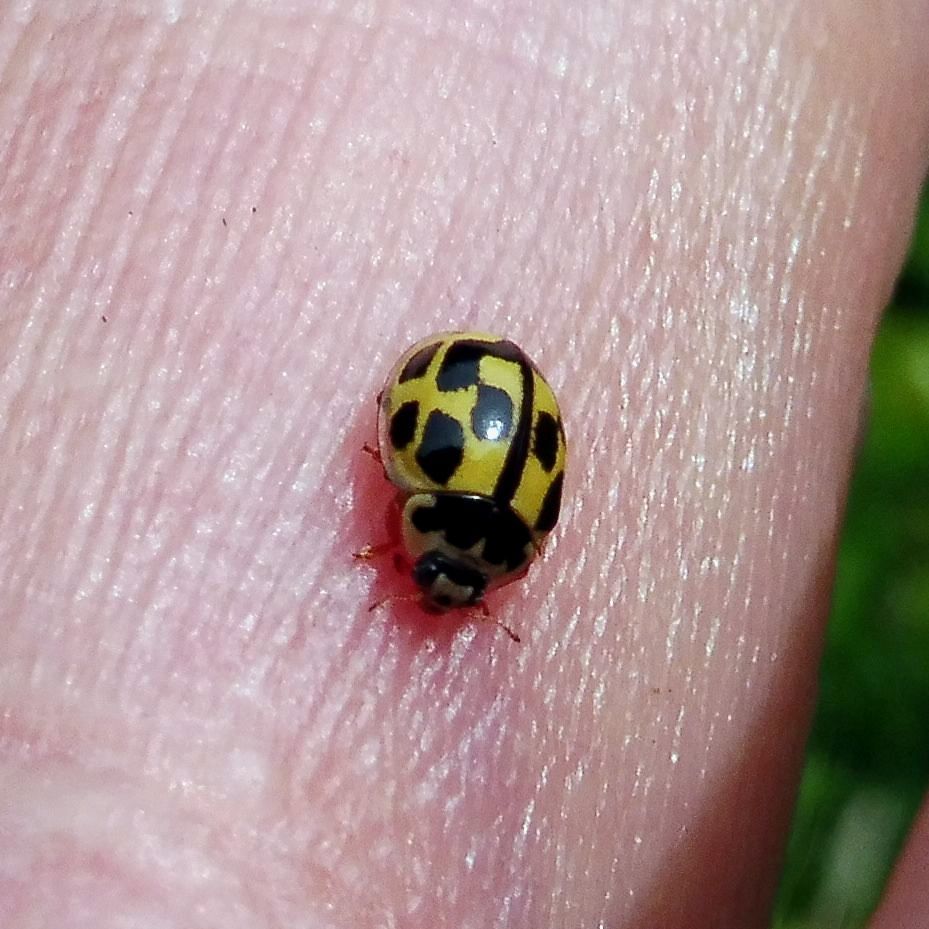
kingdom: Animalia
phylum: Arthropoda
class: Insecta
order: Coleoptera
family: Coccinellidae
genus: Propylaea
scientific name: Propylaea quatuordecimpunctata
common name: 14-spotted ladybird beetle
